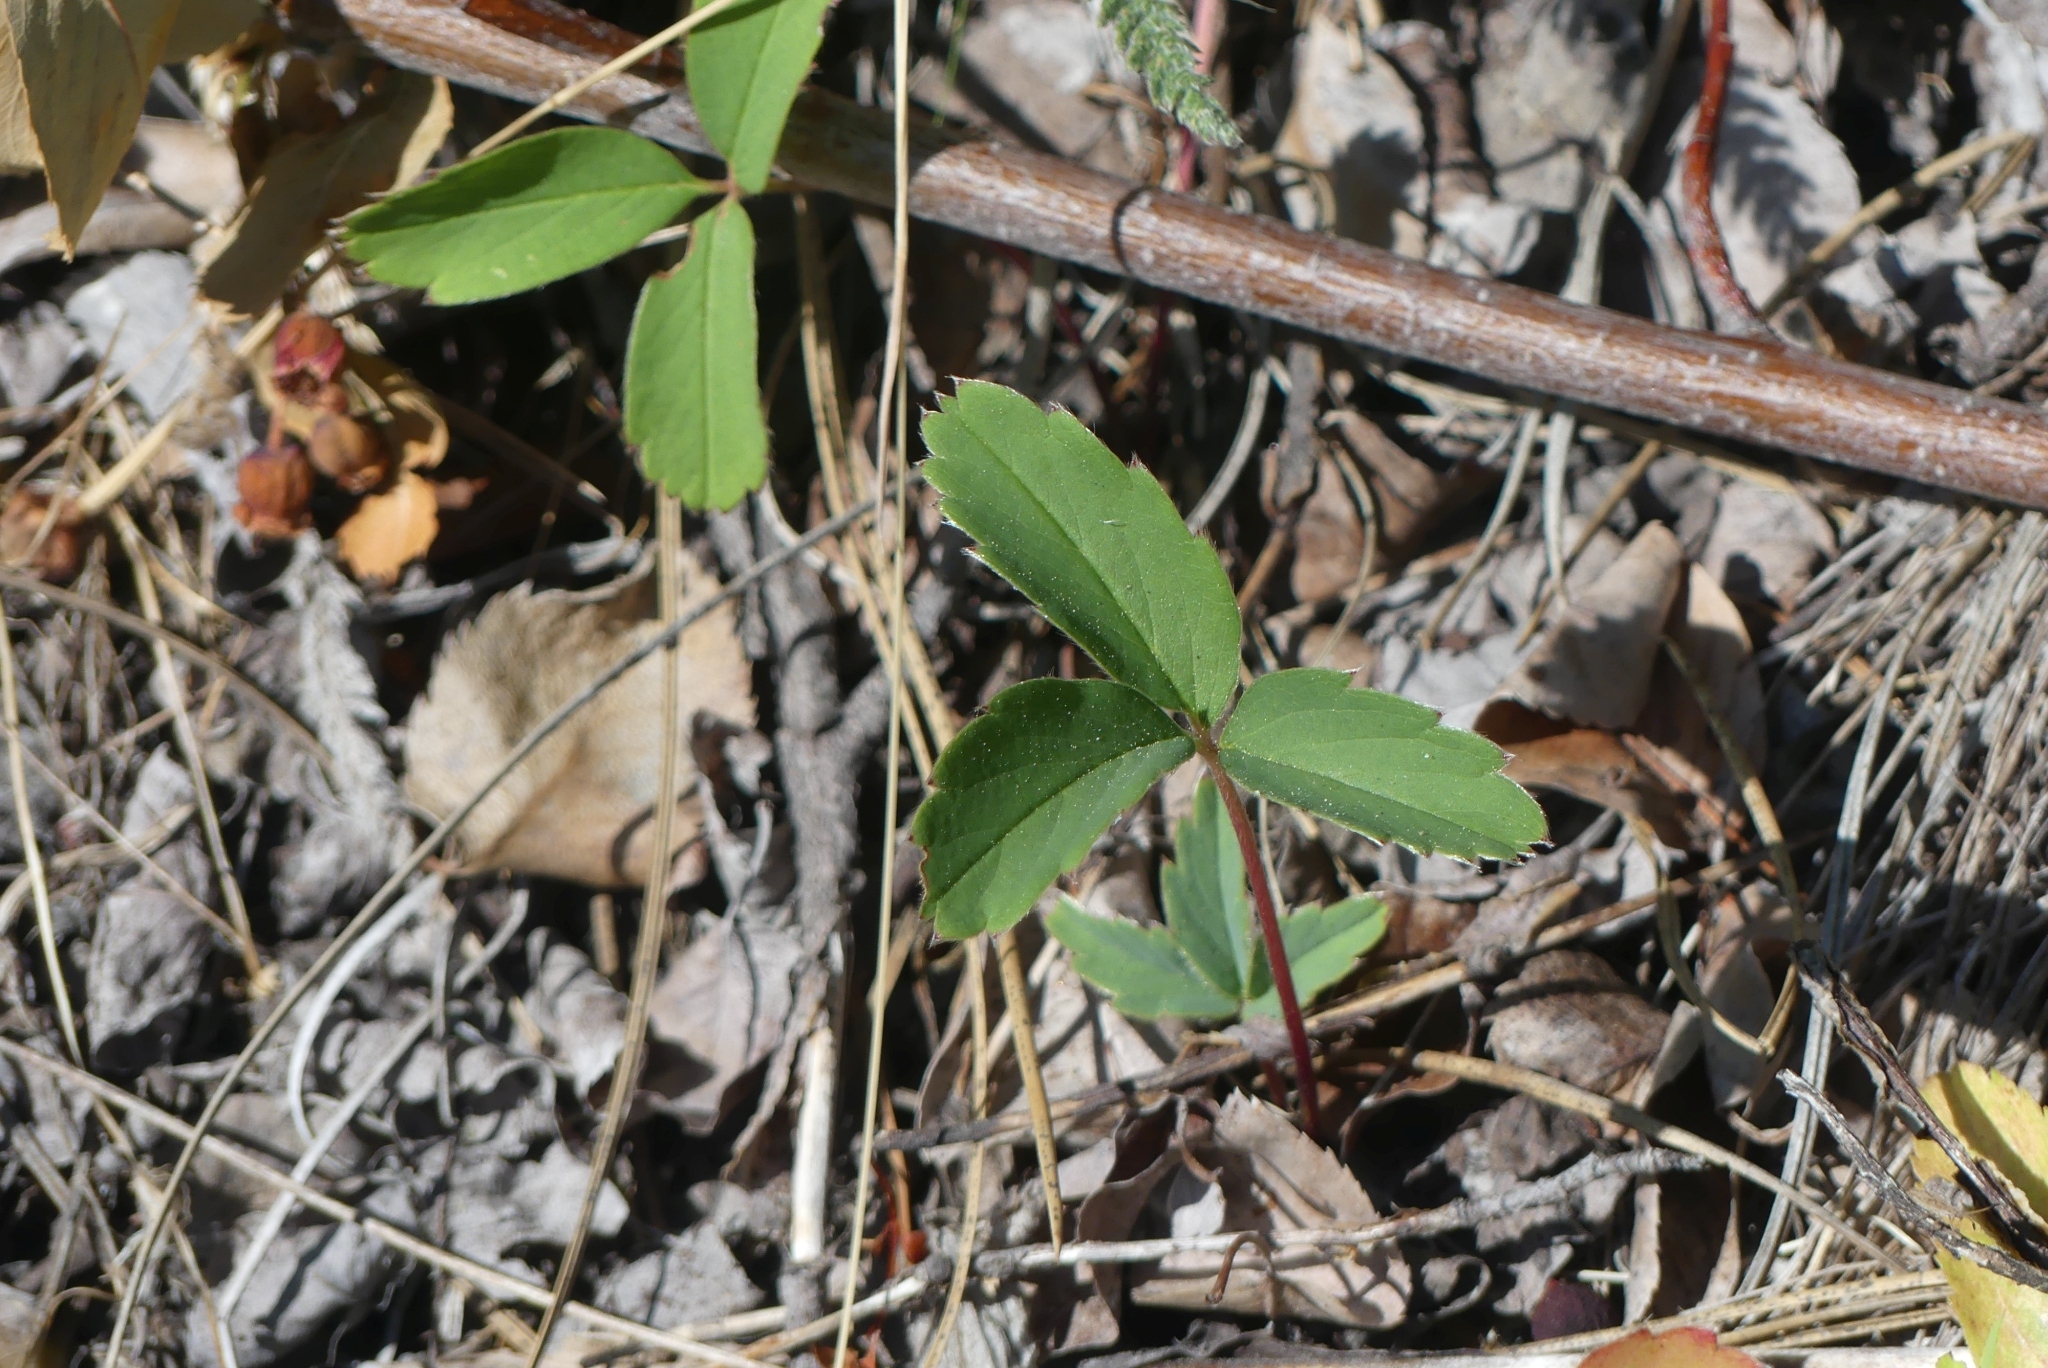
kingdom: Plantae
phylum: Tracheophyta
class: Magnoliopsida
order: Rosales
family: Rosaceae
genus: Fragaria
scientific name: Fragaria virginiana
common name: Thickleaved wild strawberry
